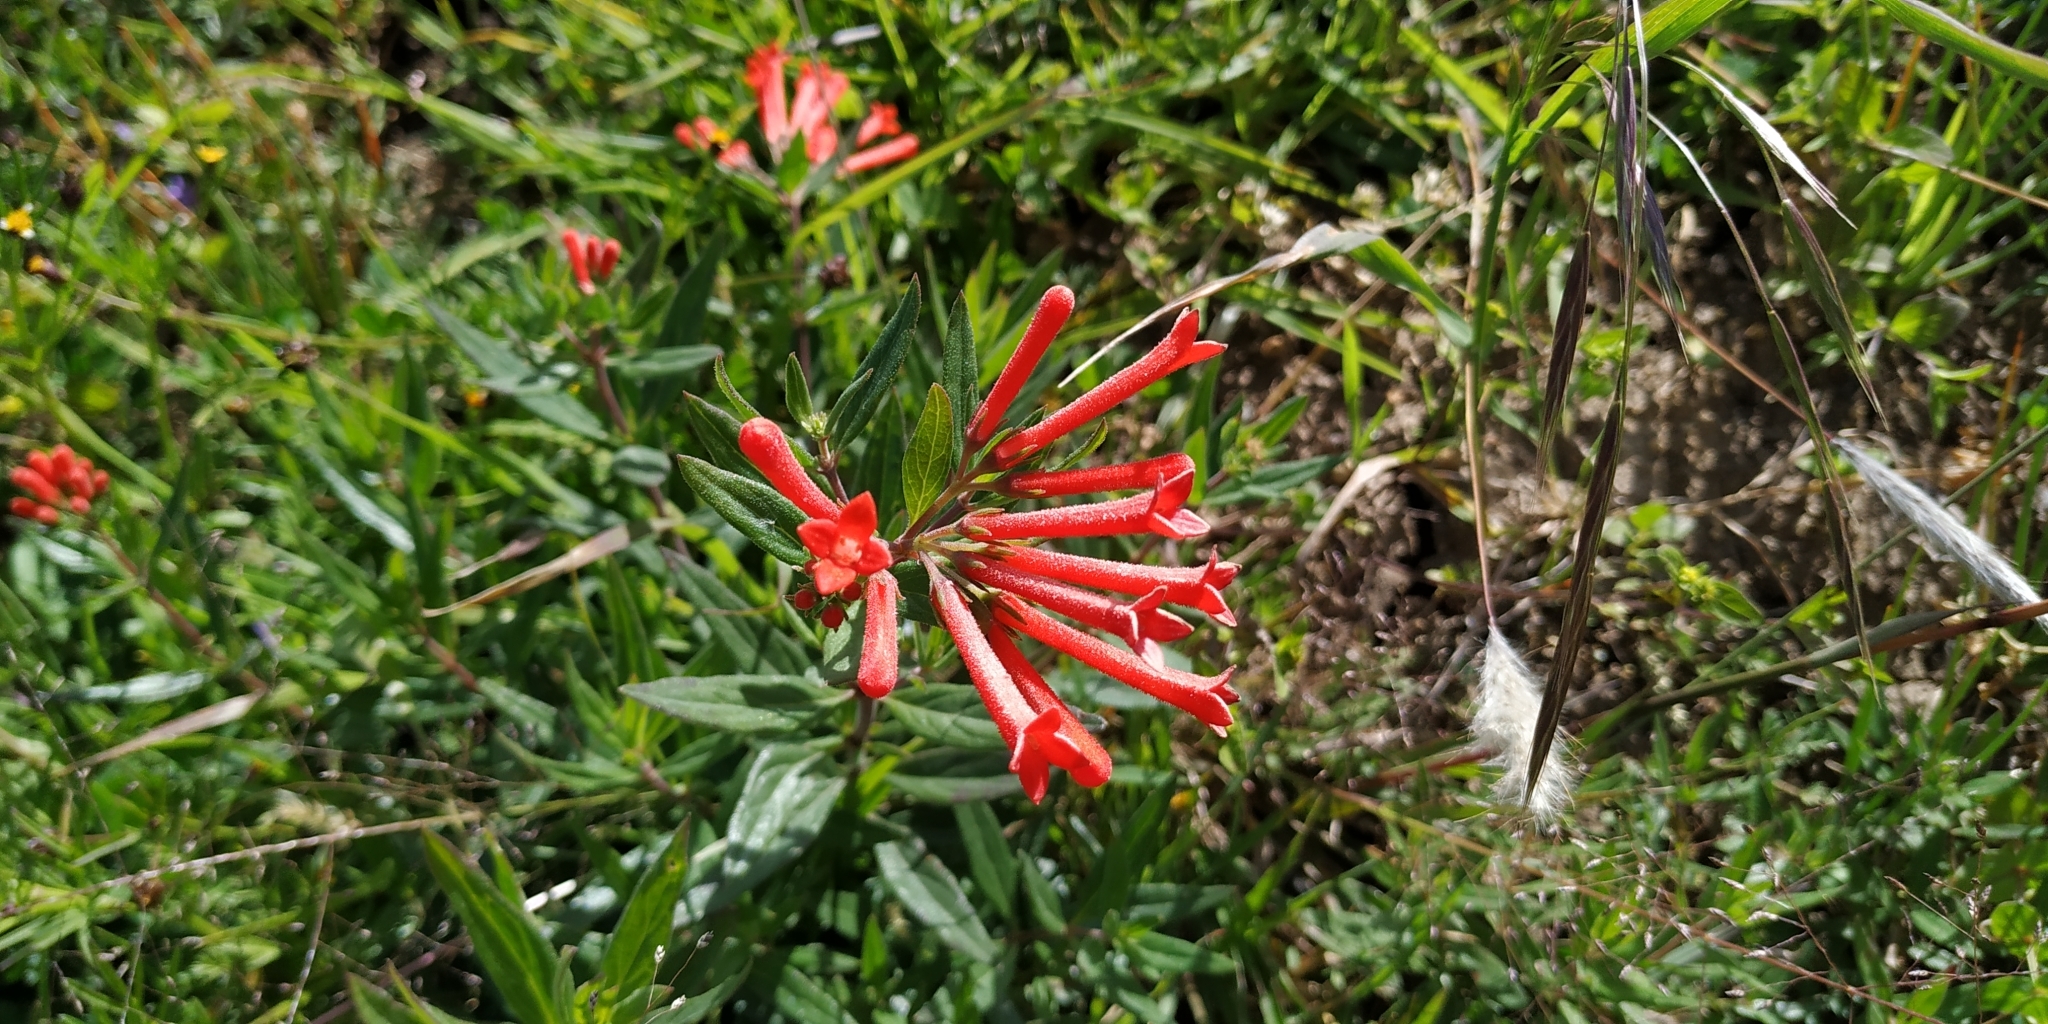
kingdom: Plantae
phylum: Tracheophyta
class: Magnoliopsida
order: Gentianales
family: Rubiaceae
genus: Bouvardia
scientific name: Bouvardia ternifolia
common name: Scarlet bouvardia
